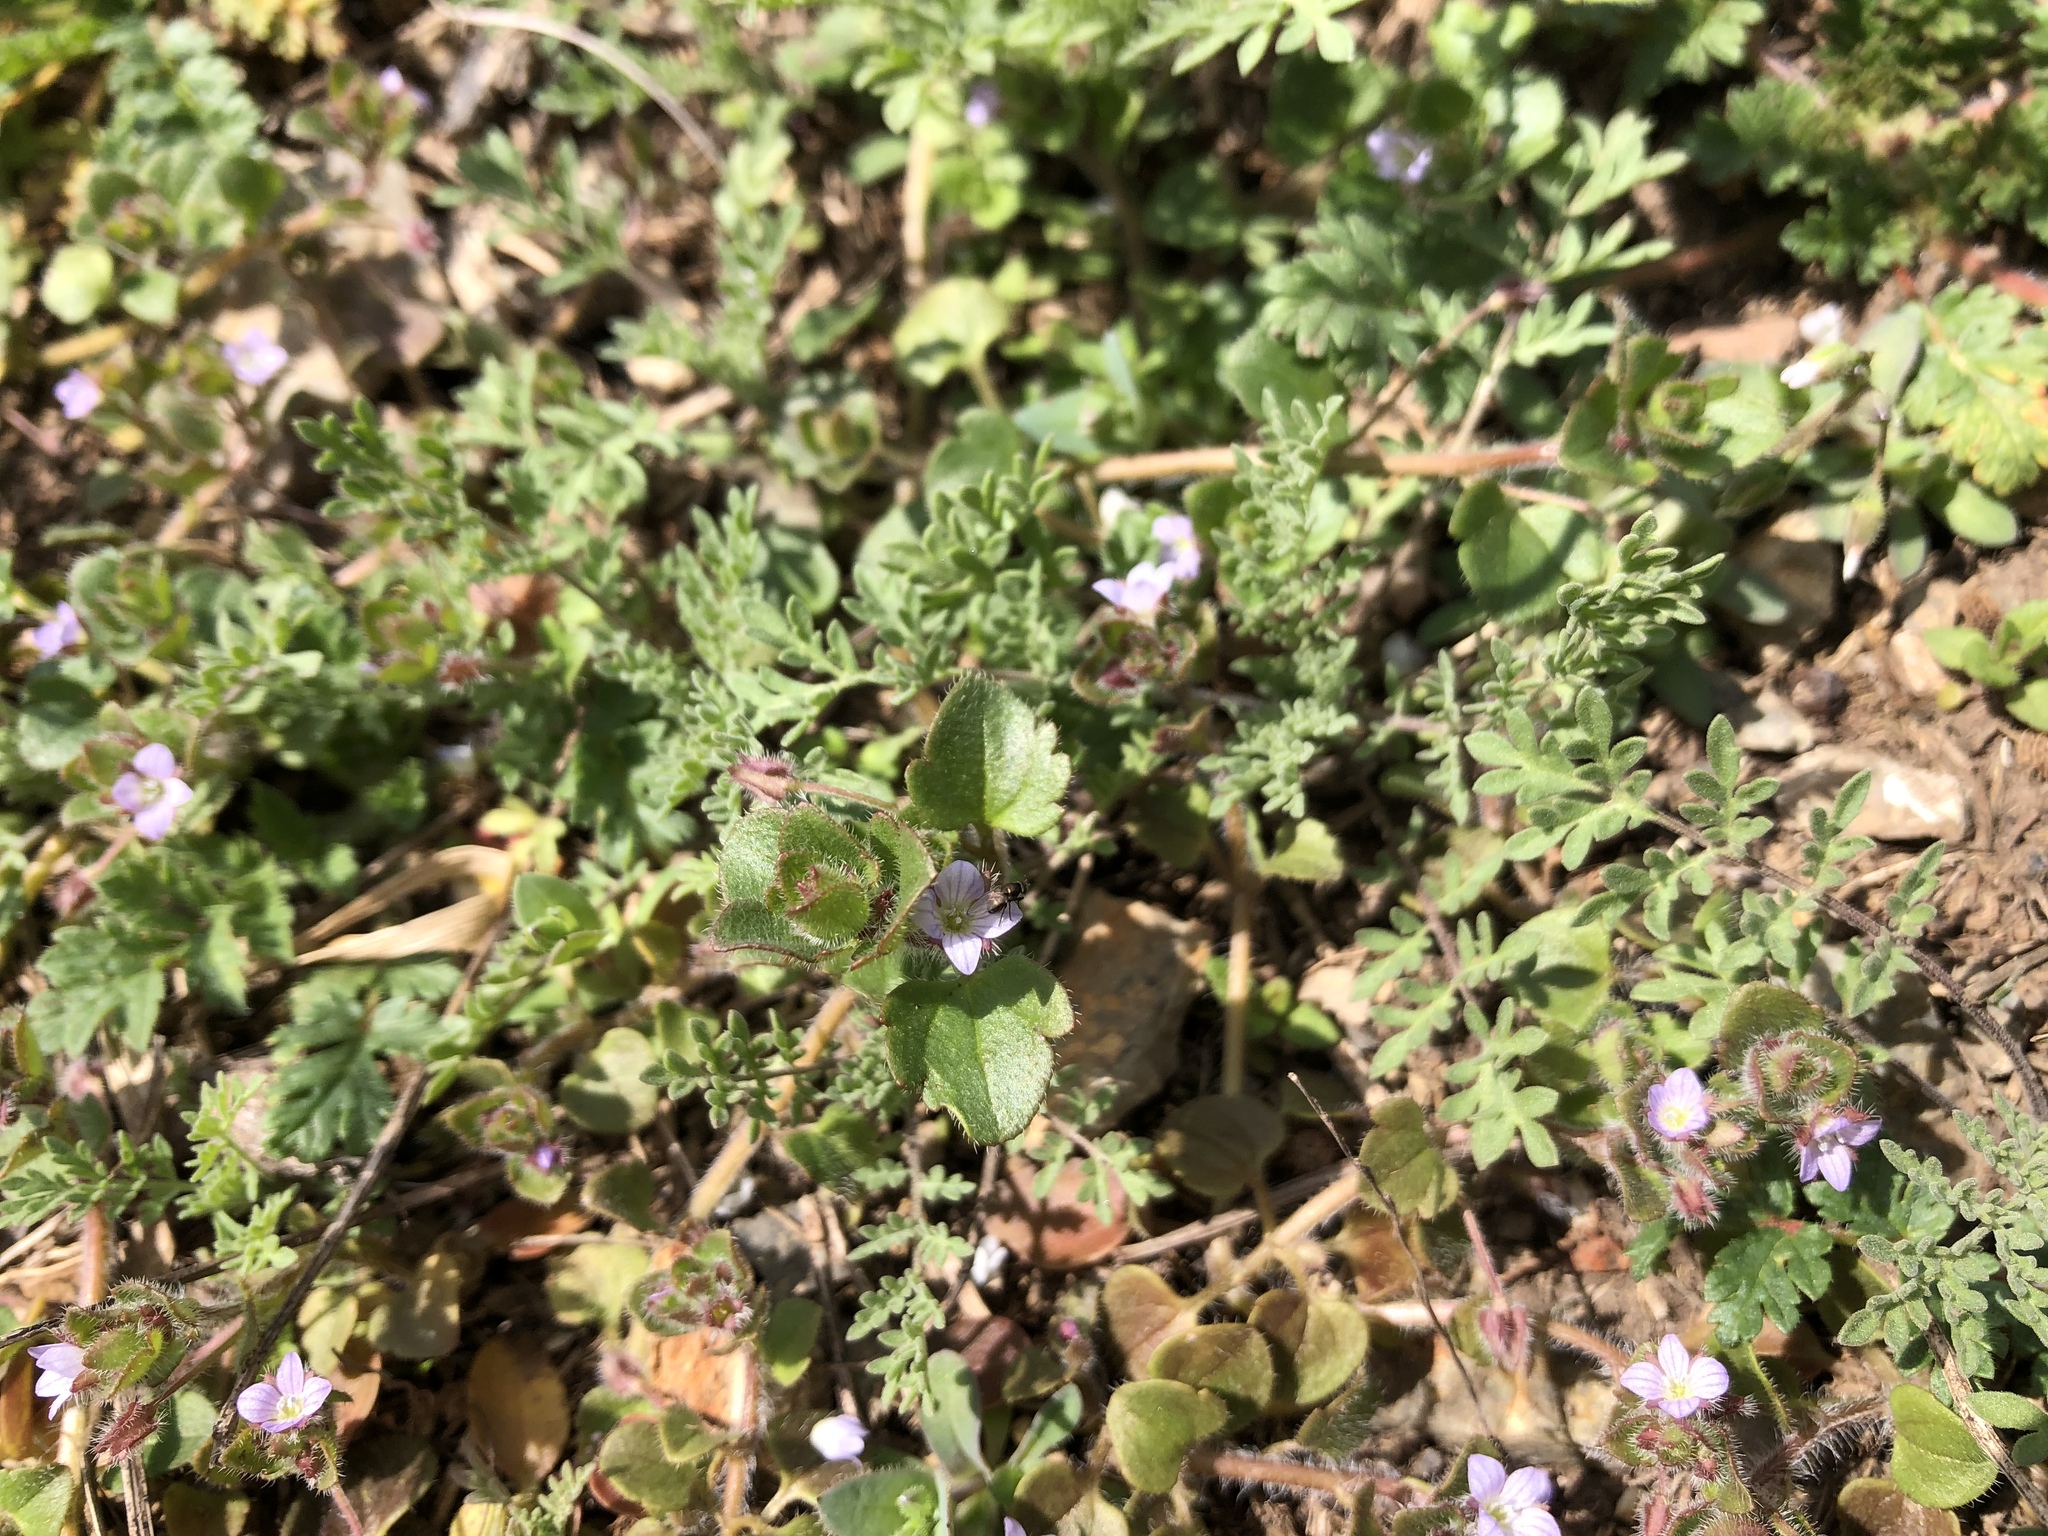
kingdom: Plantae
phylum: Tracheophyta
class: Magnoliopsida
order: Lamiales
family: Plantaginaceae
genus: Veronica
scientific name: Veronica sublobata
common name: False ivy-leaved speedwell
